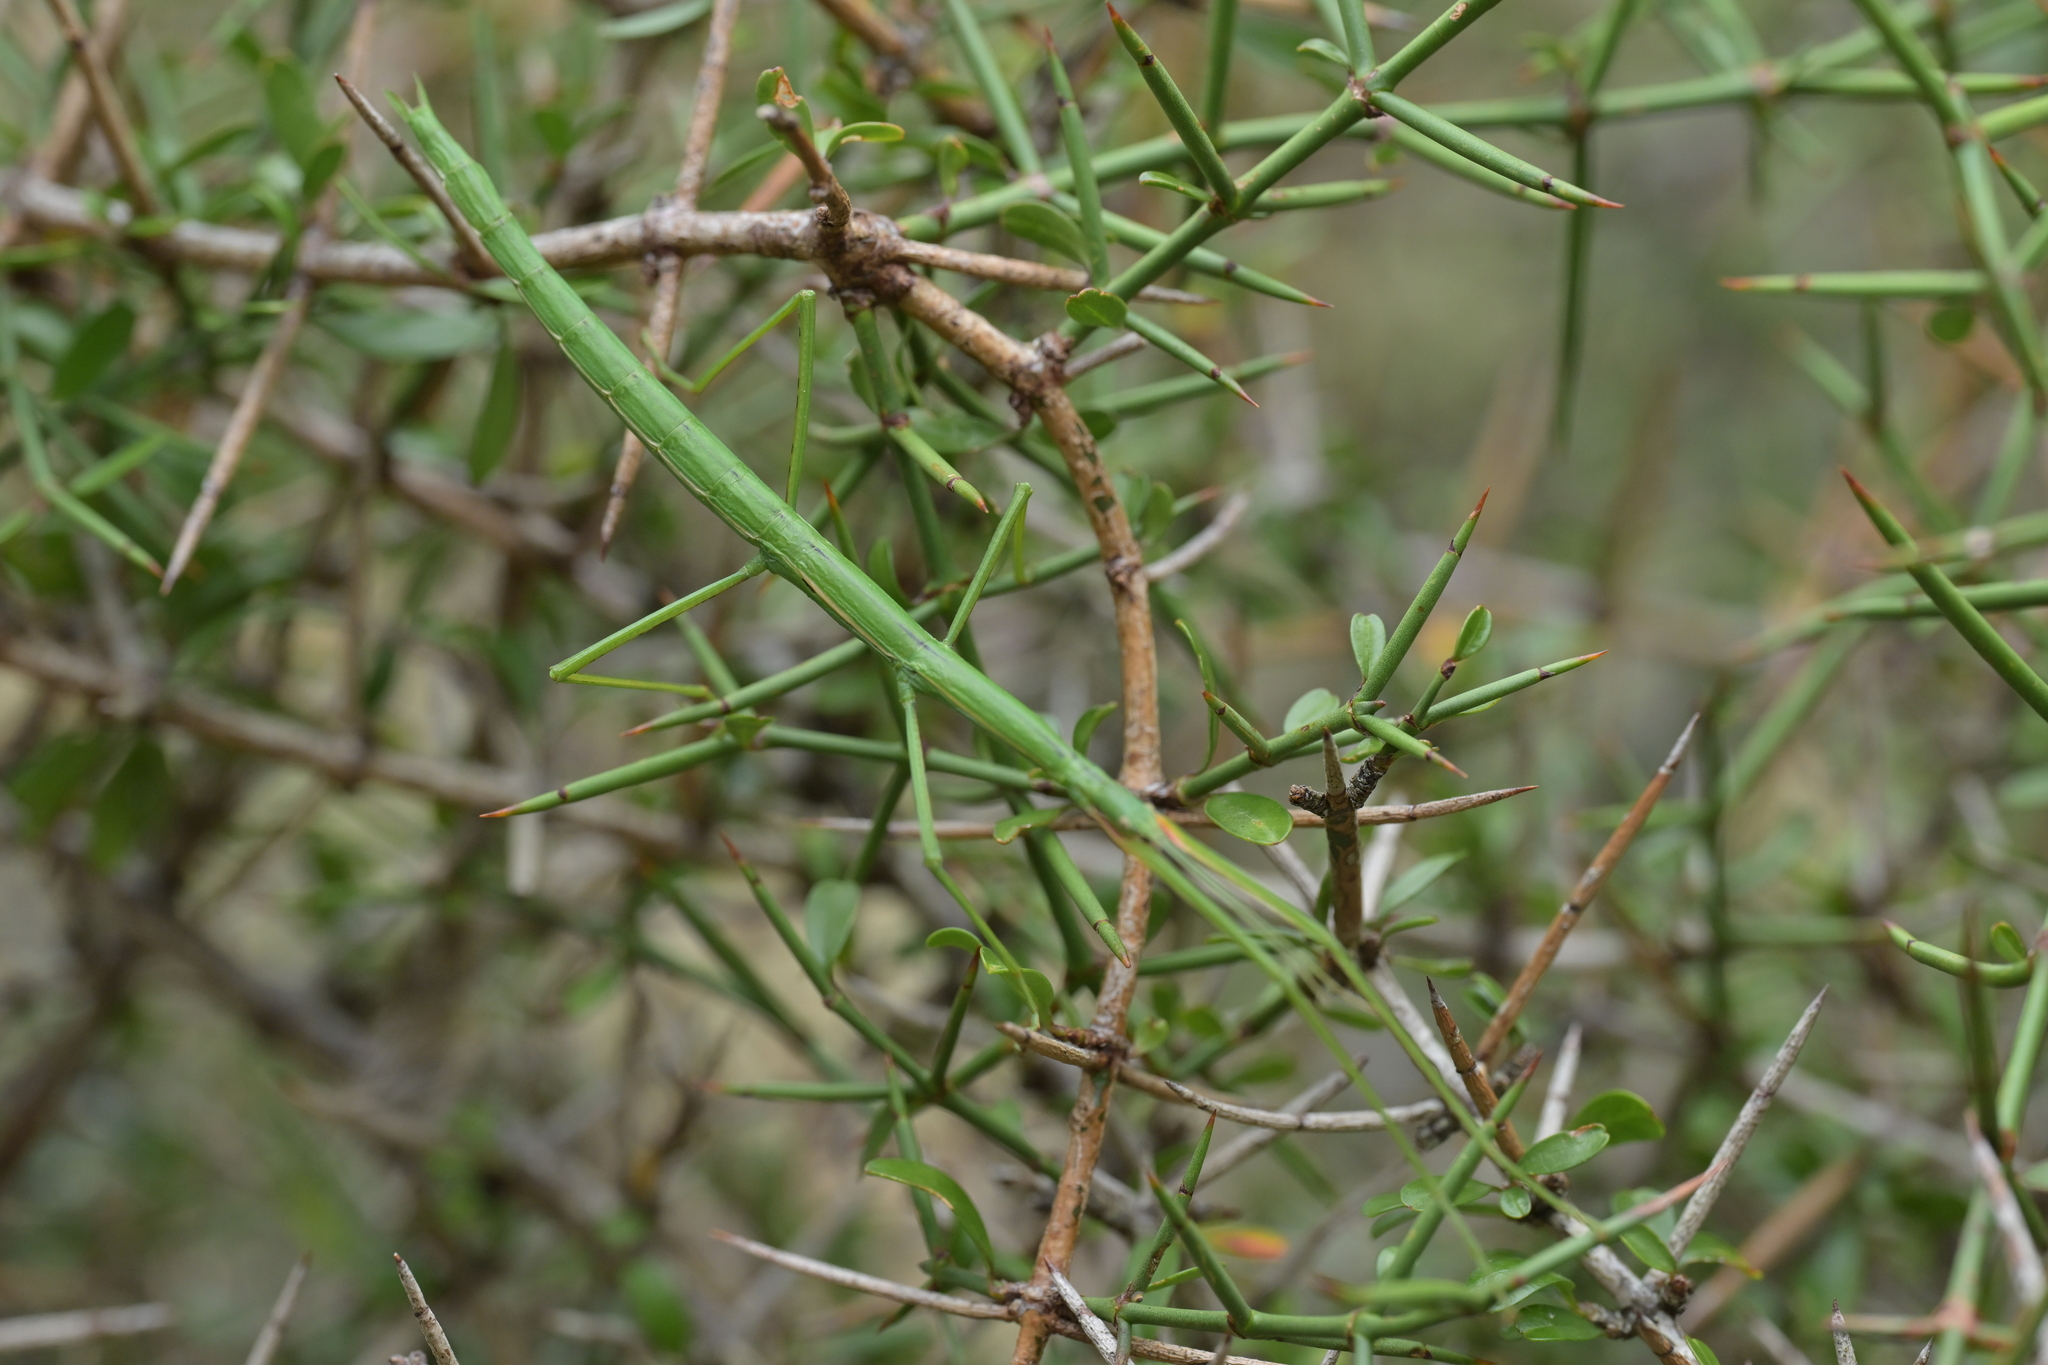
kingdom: Animalia
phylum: Arthropoda
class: Insecta
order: Phasmida
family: Phasmatidae
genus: Clitarchus
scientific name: Clitarchus hookeri
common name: Smooth stick insect
